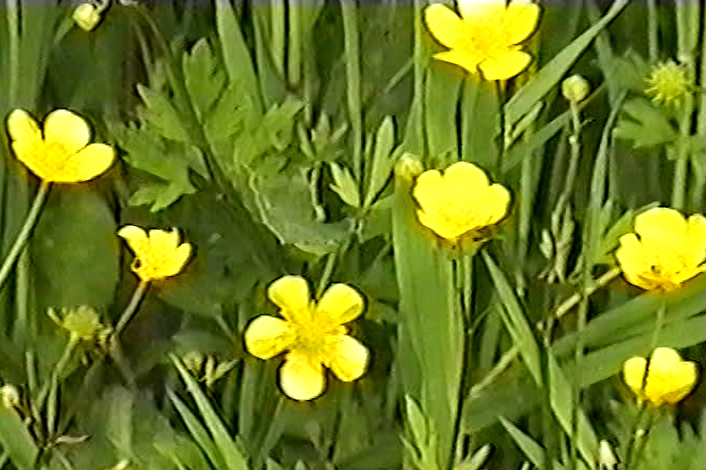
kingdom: Plantae
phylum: Tracheophyta
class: Magnoliopsida
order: Ranunculales
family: Ranunculaceae
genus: Ranunculus
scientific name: Ranunculus repens
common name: Creeping buttercup
